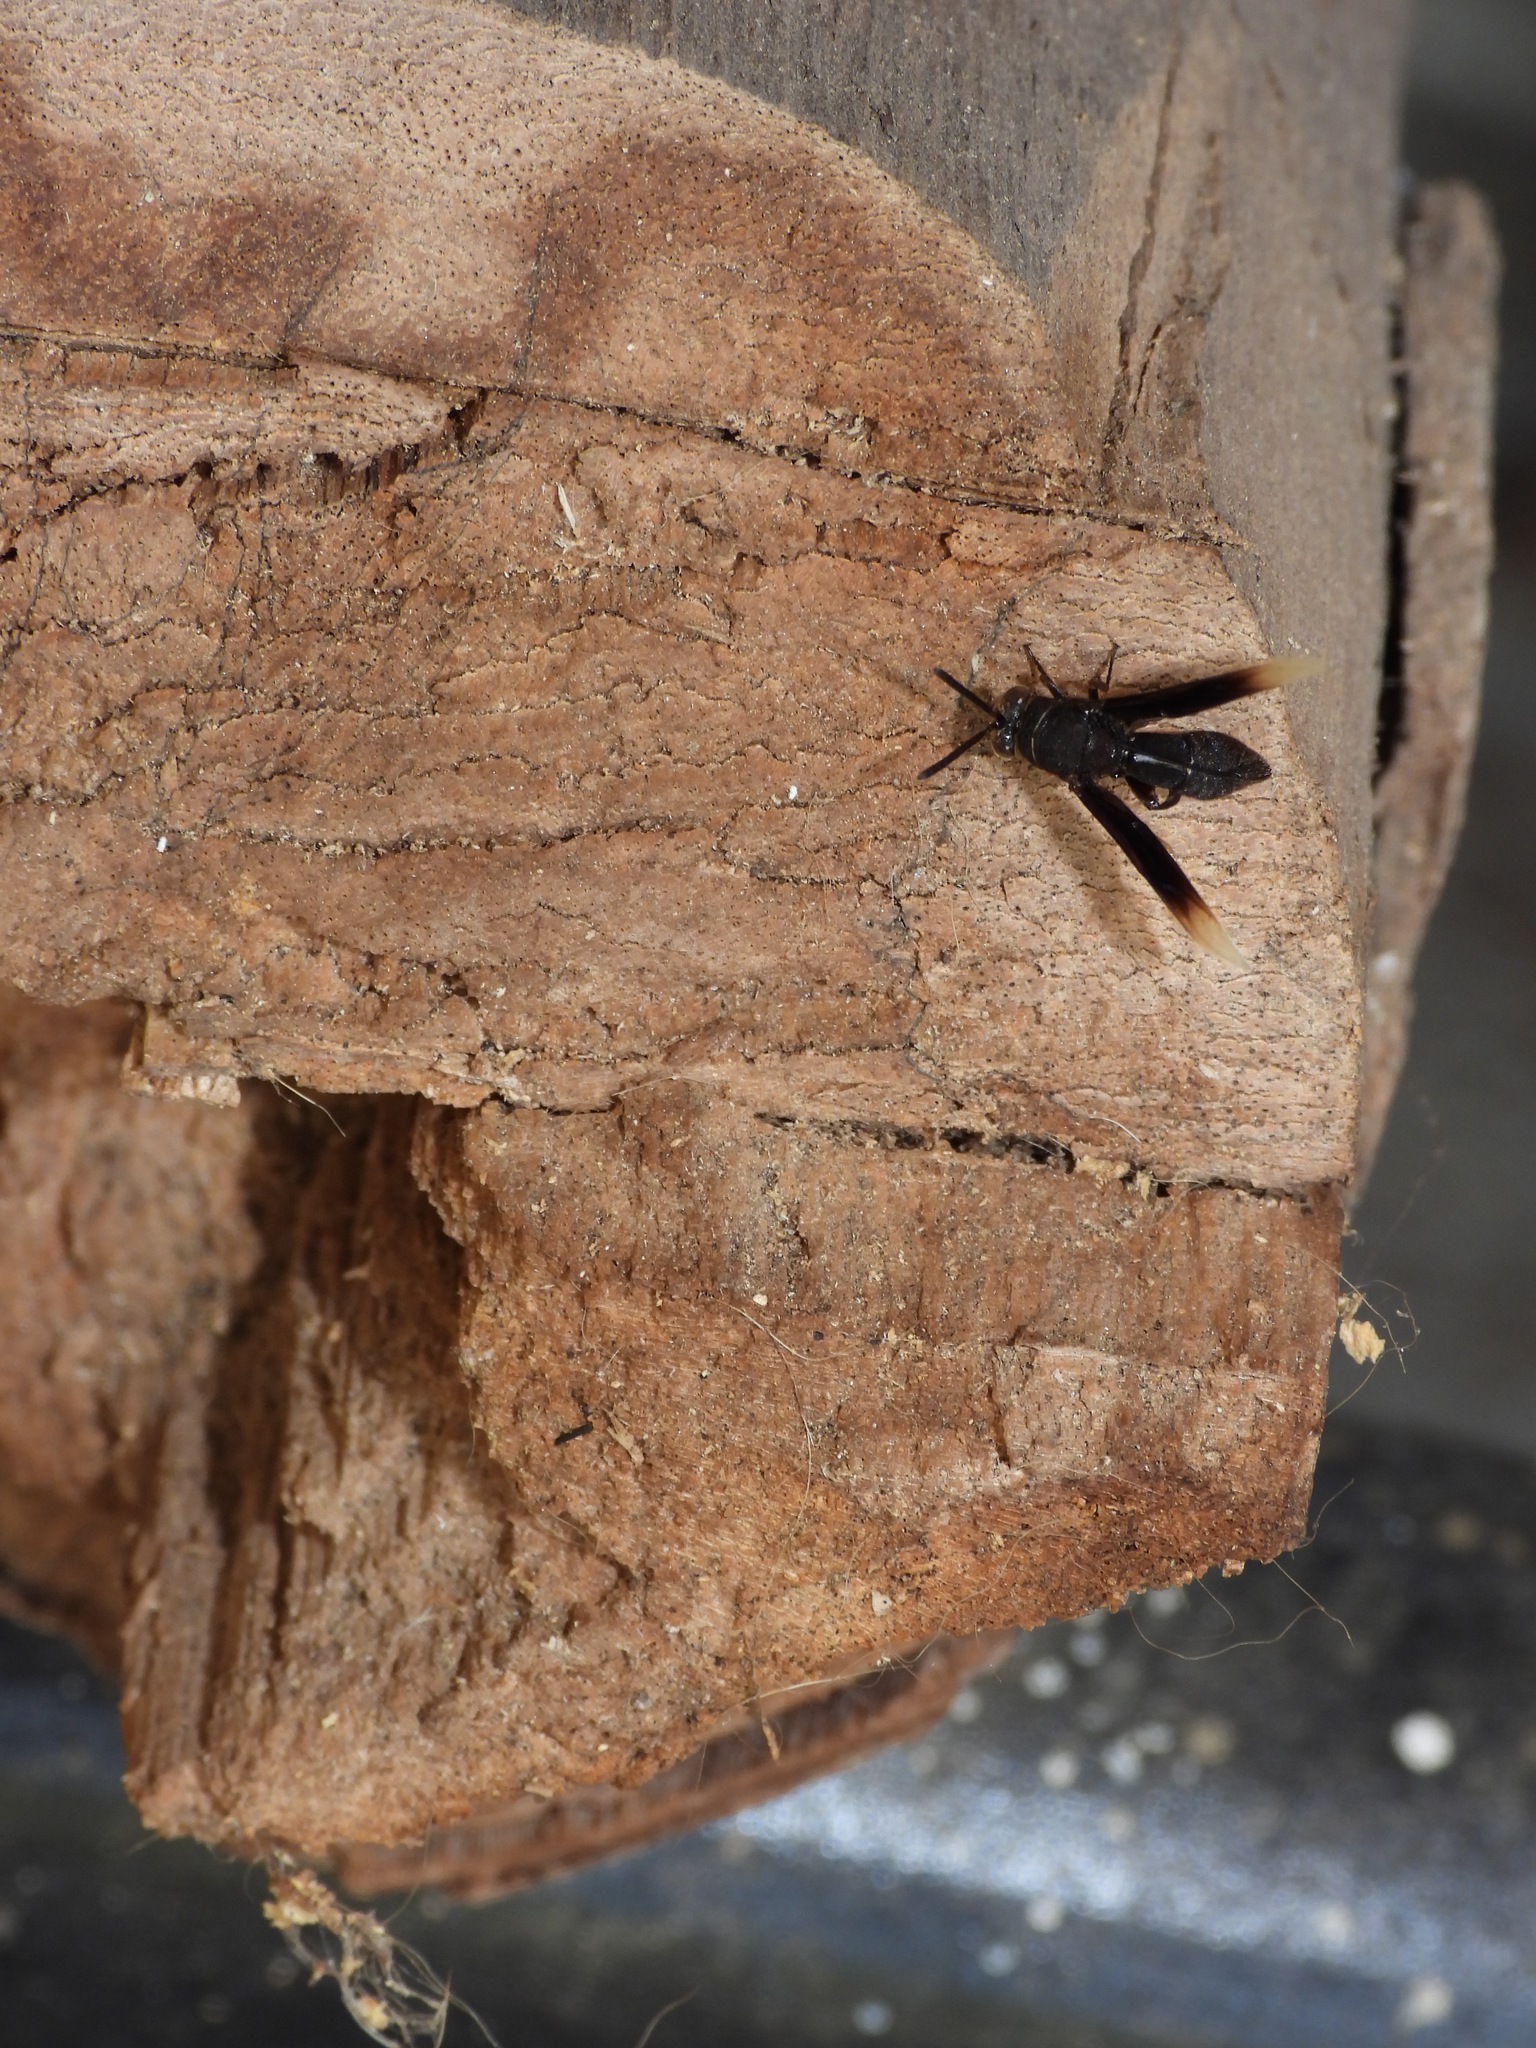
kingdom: Animalia
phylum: Arthropoda
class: Insecta
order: Hymenoptera
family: Leucospidae
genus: Leucospis
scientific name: Leucospis leucotelus
